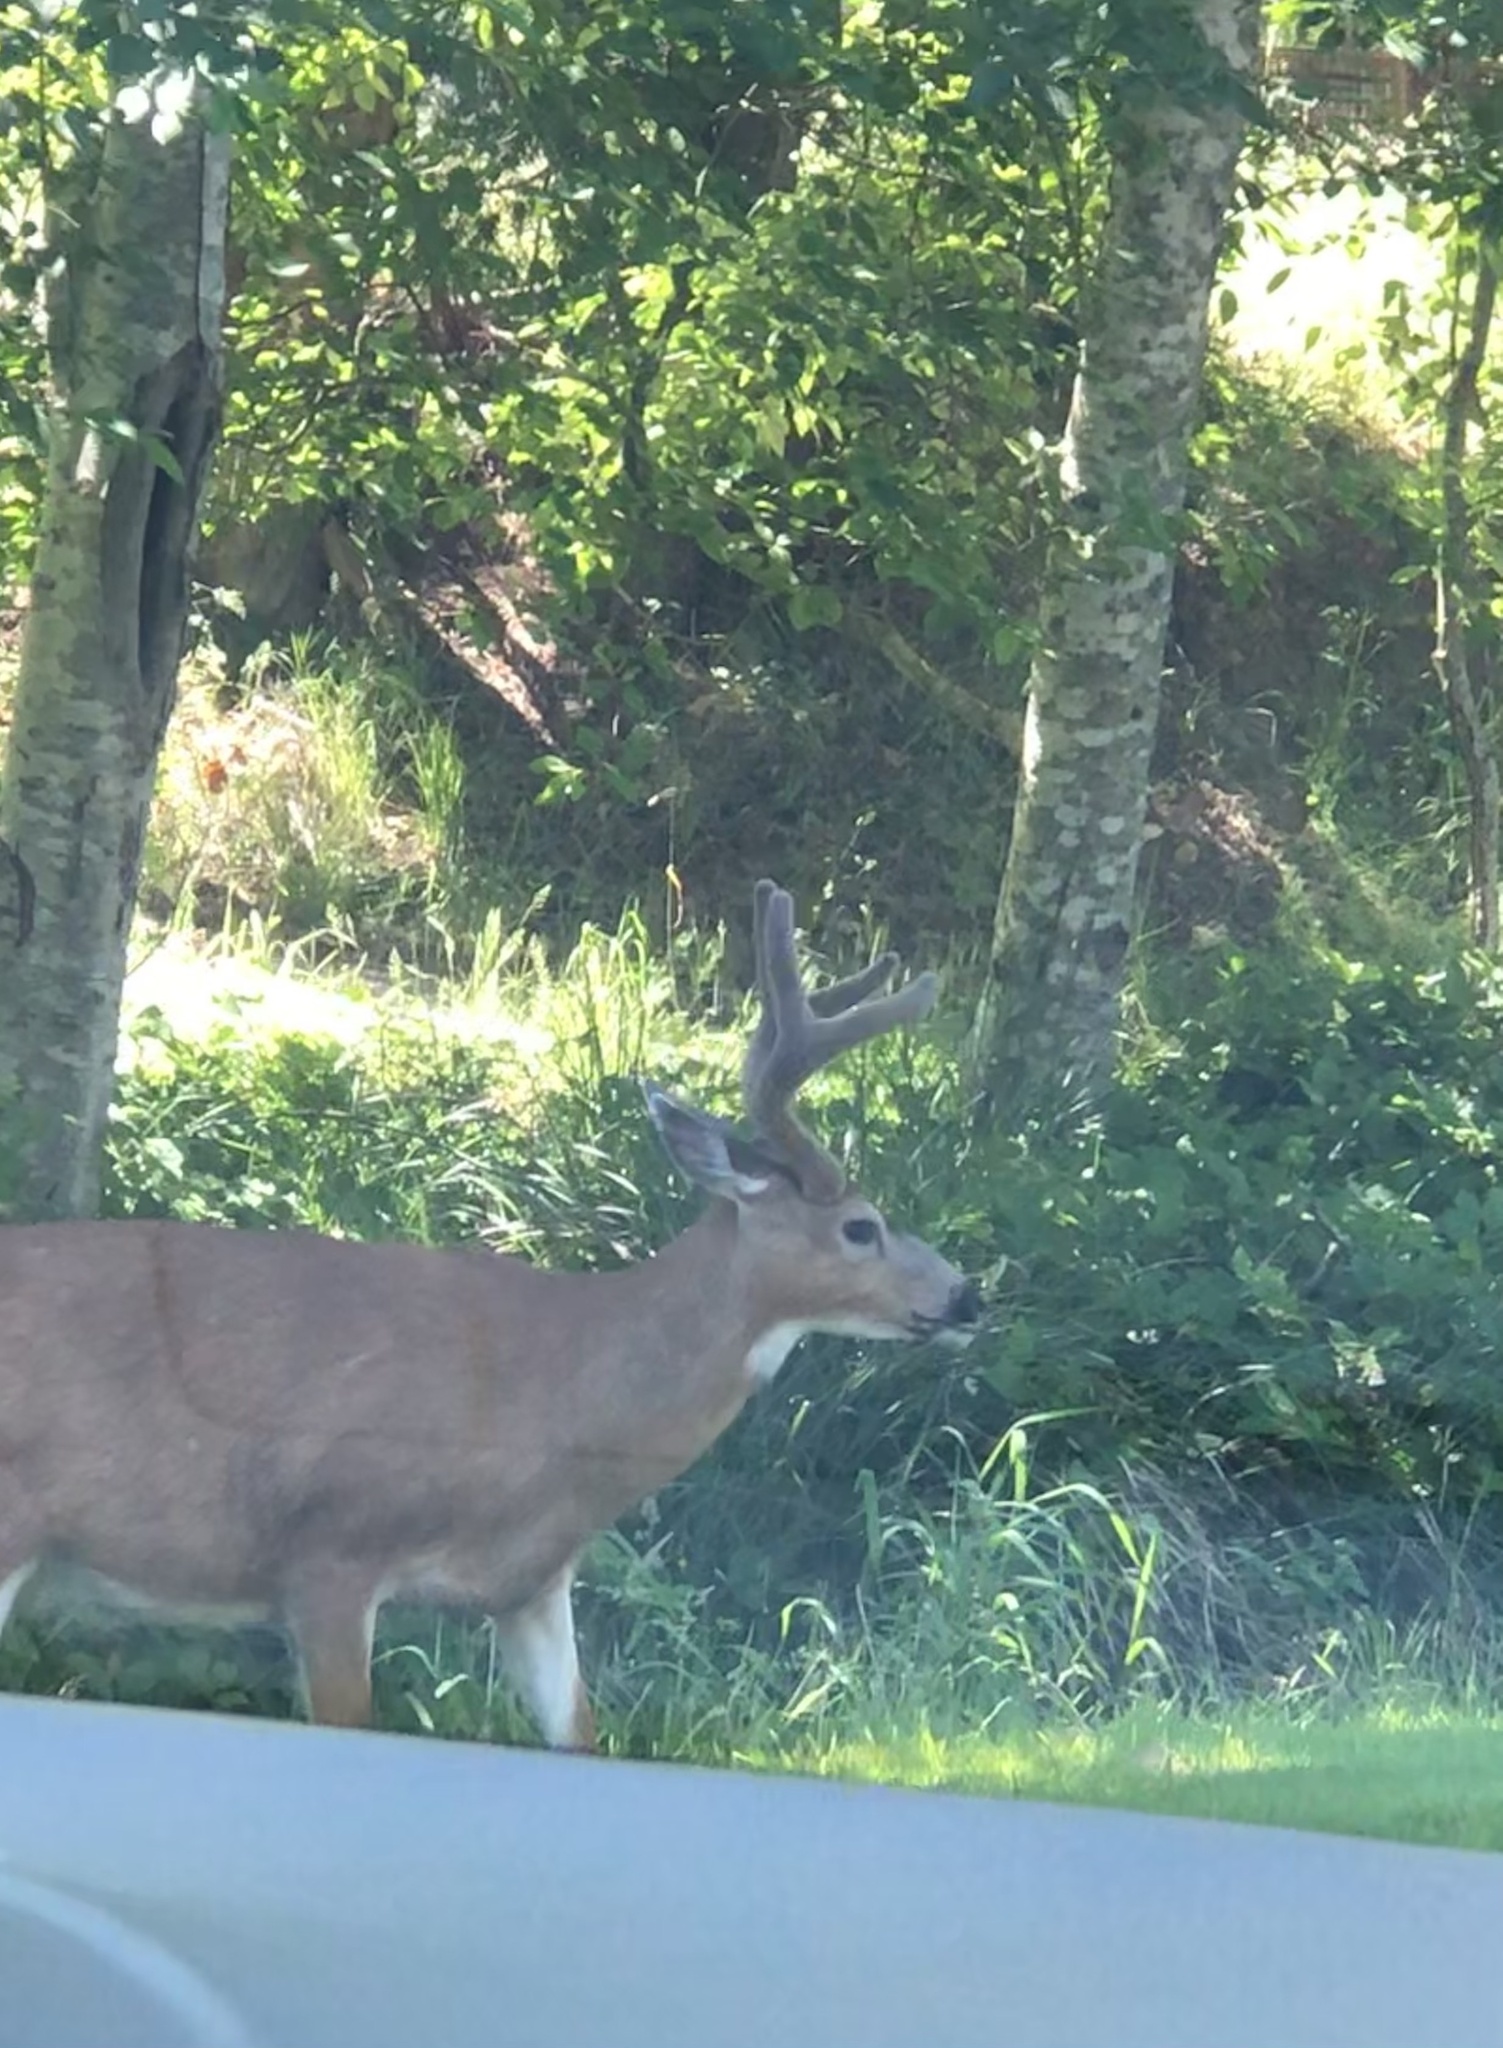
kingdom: Animalia
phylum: Chordata
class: Mammalia
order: Artiodactyla
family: Cervidae
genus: Odocoileus
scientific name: Odocoileus hemionus
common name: Mule deer
